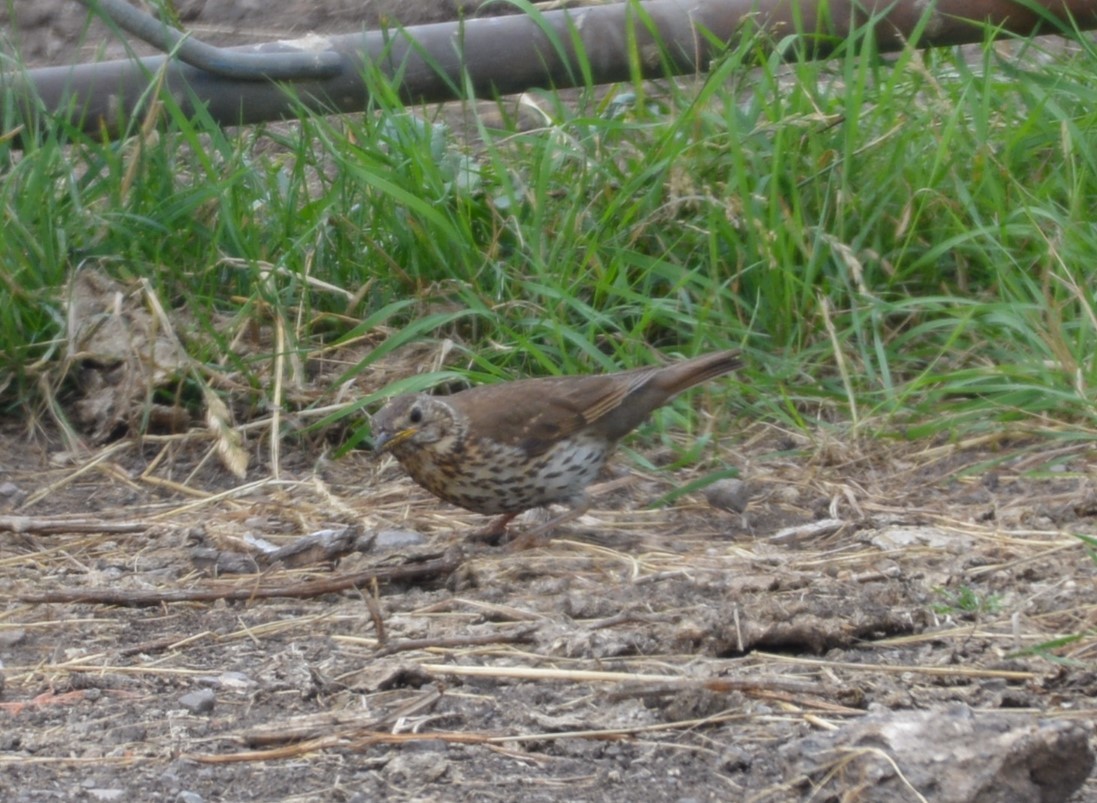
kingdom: Animalia
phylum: Chordata
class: Aves
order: Passeriformes
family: Turdidae
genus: Turdus
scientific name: Turdus philomelos
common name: Song thrush
